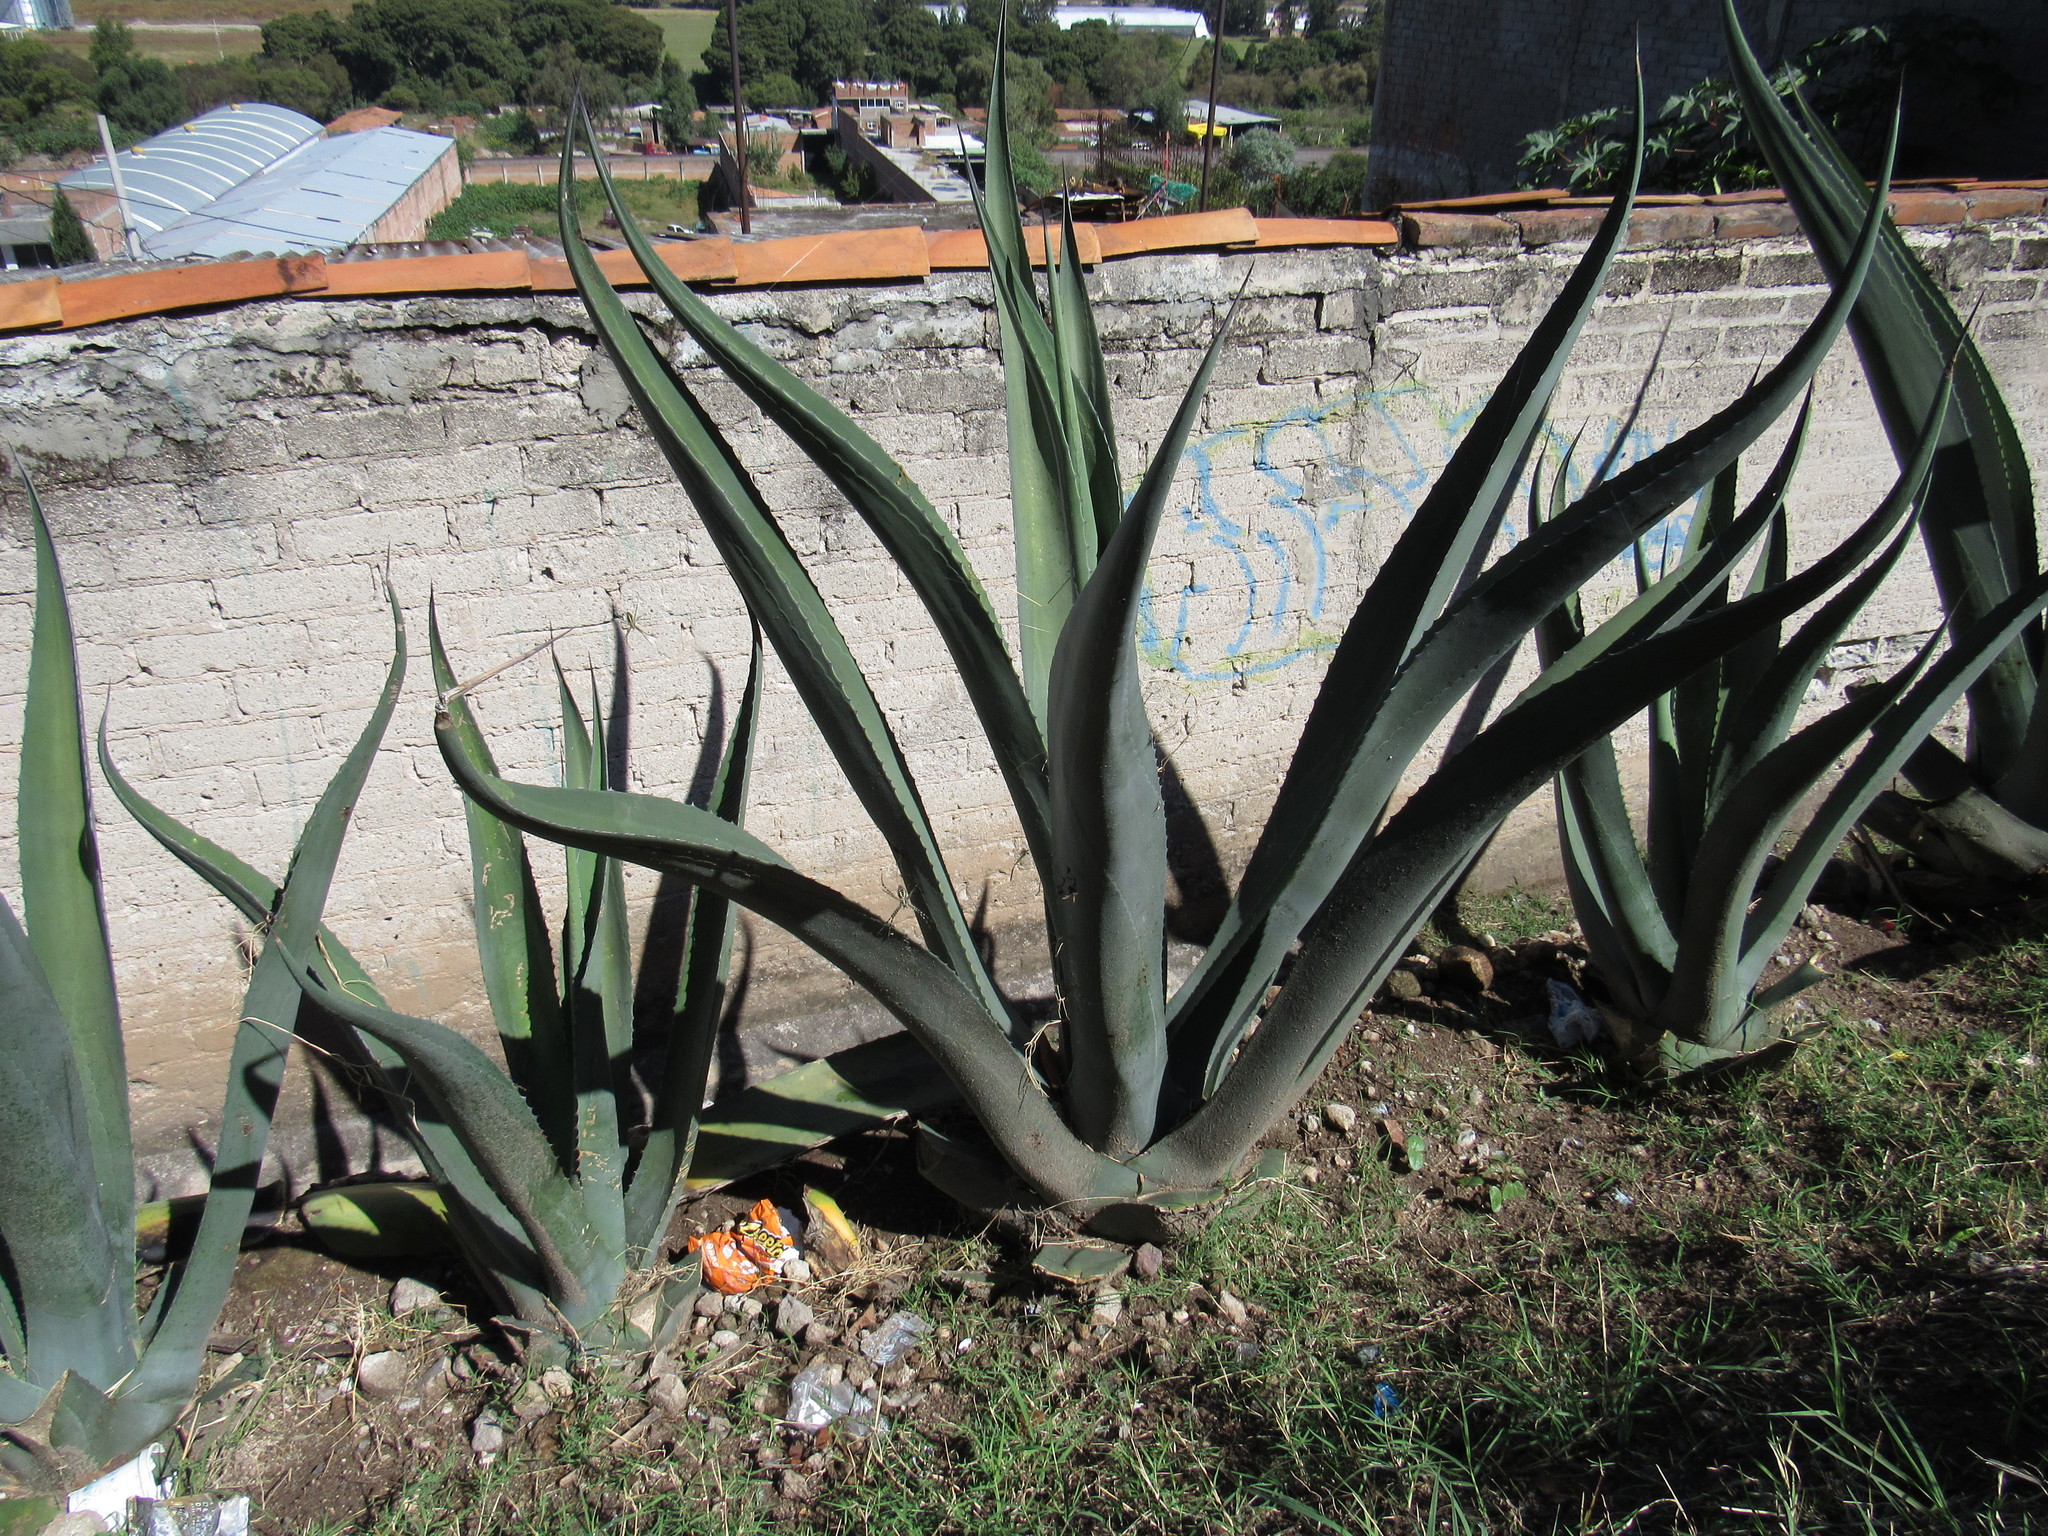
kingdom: Animalia
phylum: Arthropoda
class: Arachnida
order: Araneae
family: Araneidae
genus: Argiope
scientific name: Argiope trifasciata
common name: Banded garden spider
